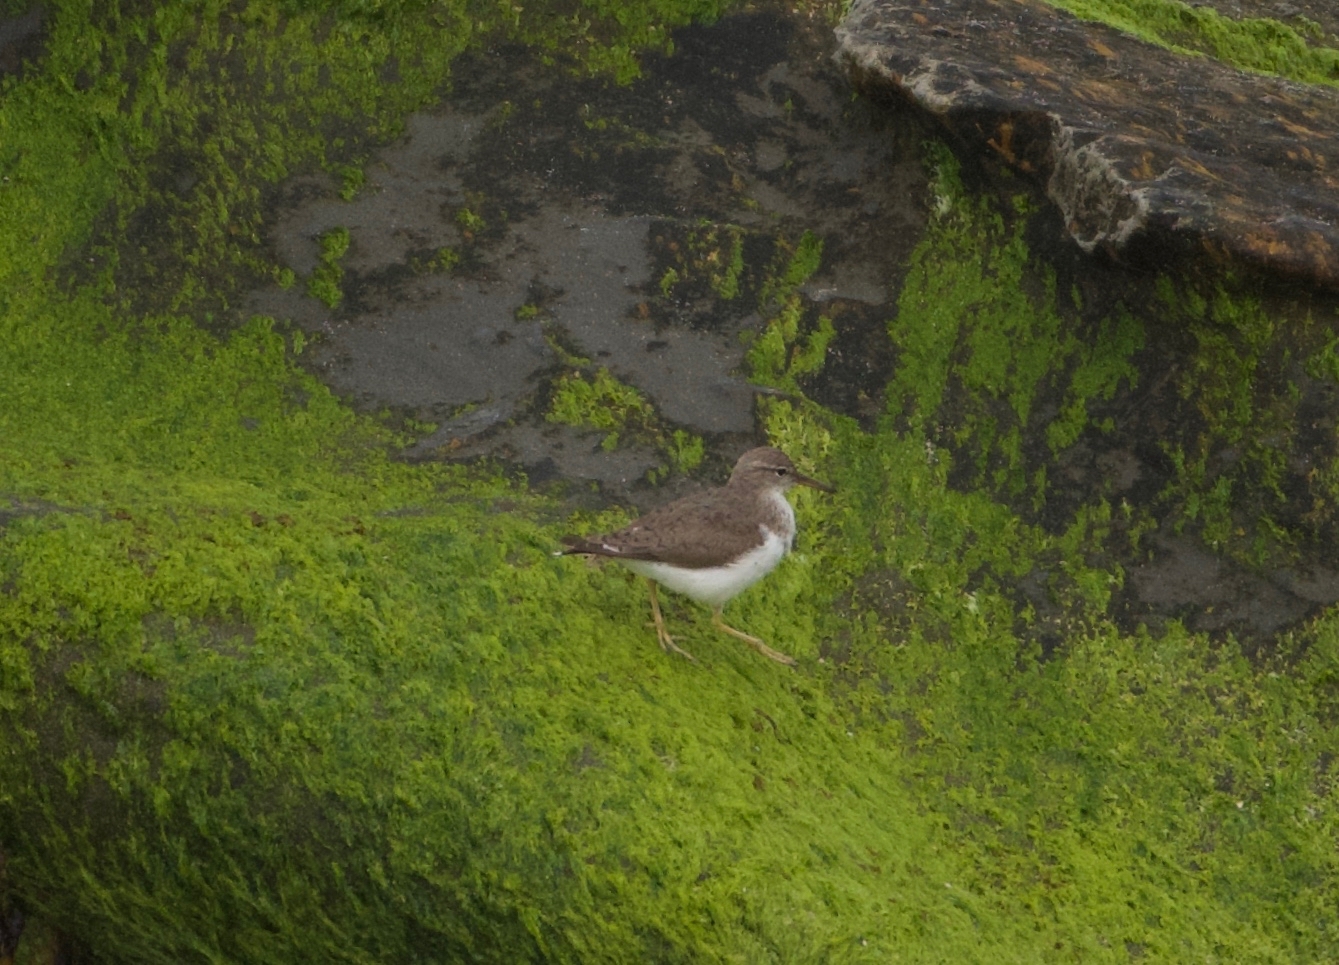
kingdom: Animalia
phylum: Chordata
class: Aves
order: Charadriiformes
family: Scolopacidae
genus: Actitis
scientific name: Actitis macularius
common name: Spotted sandpiper
